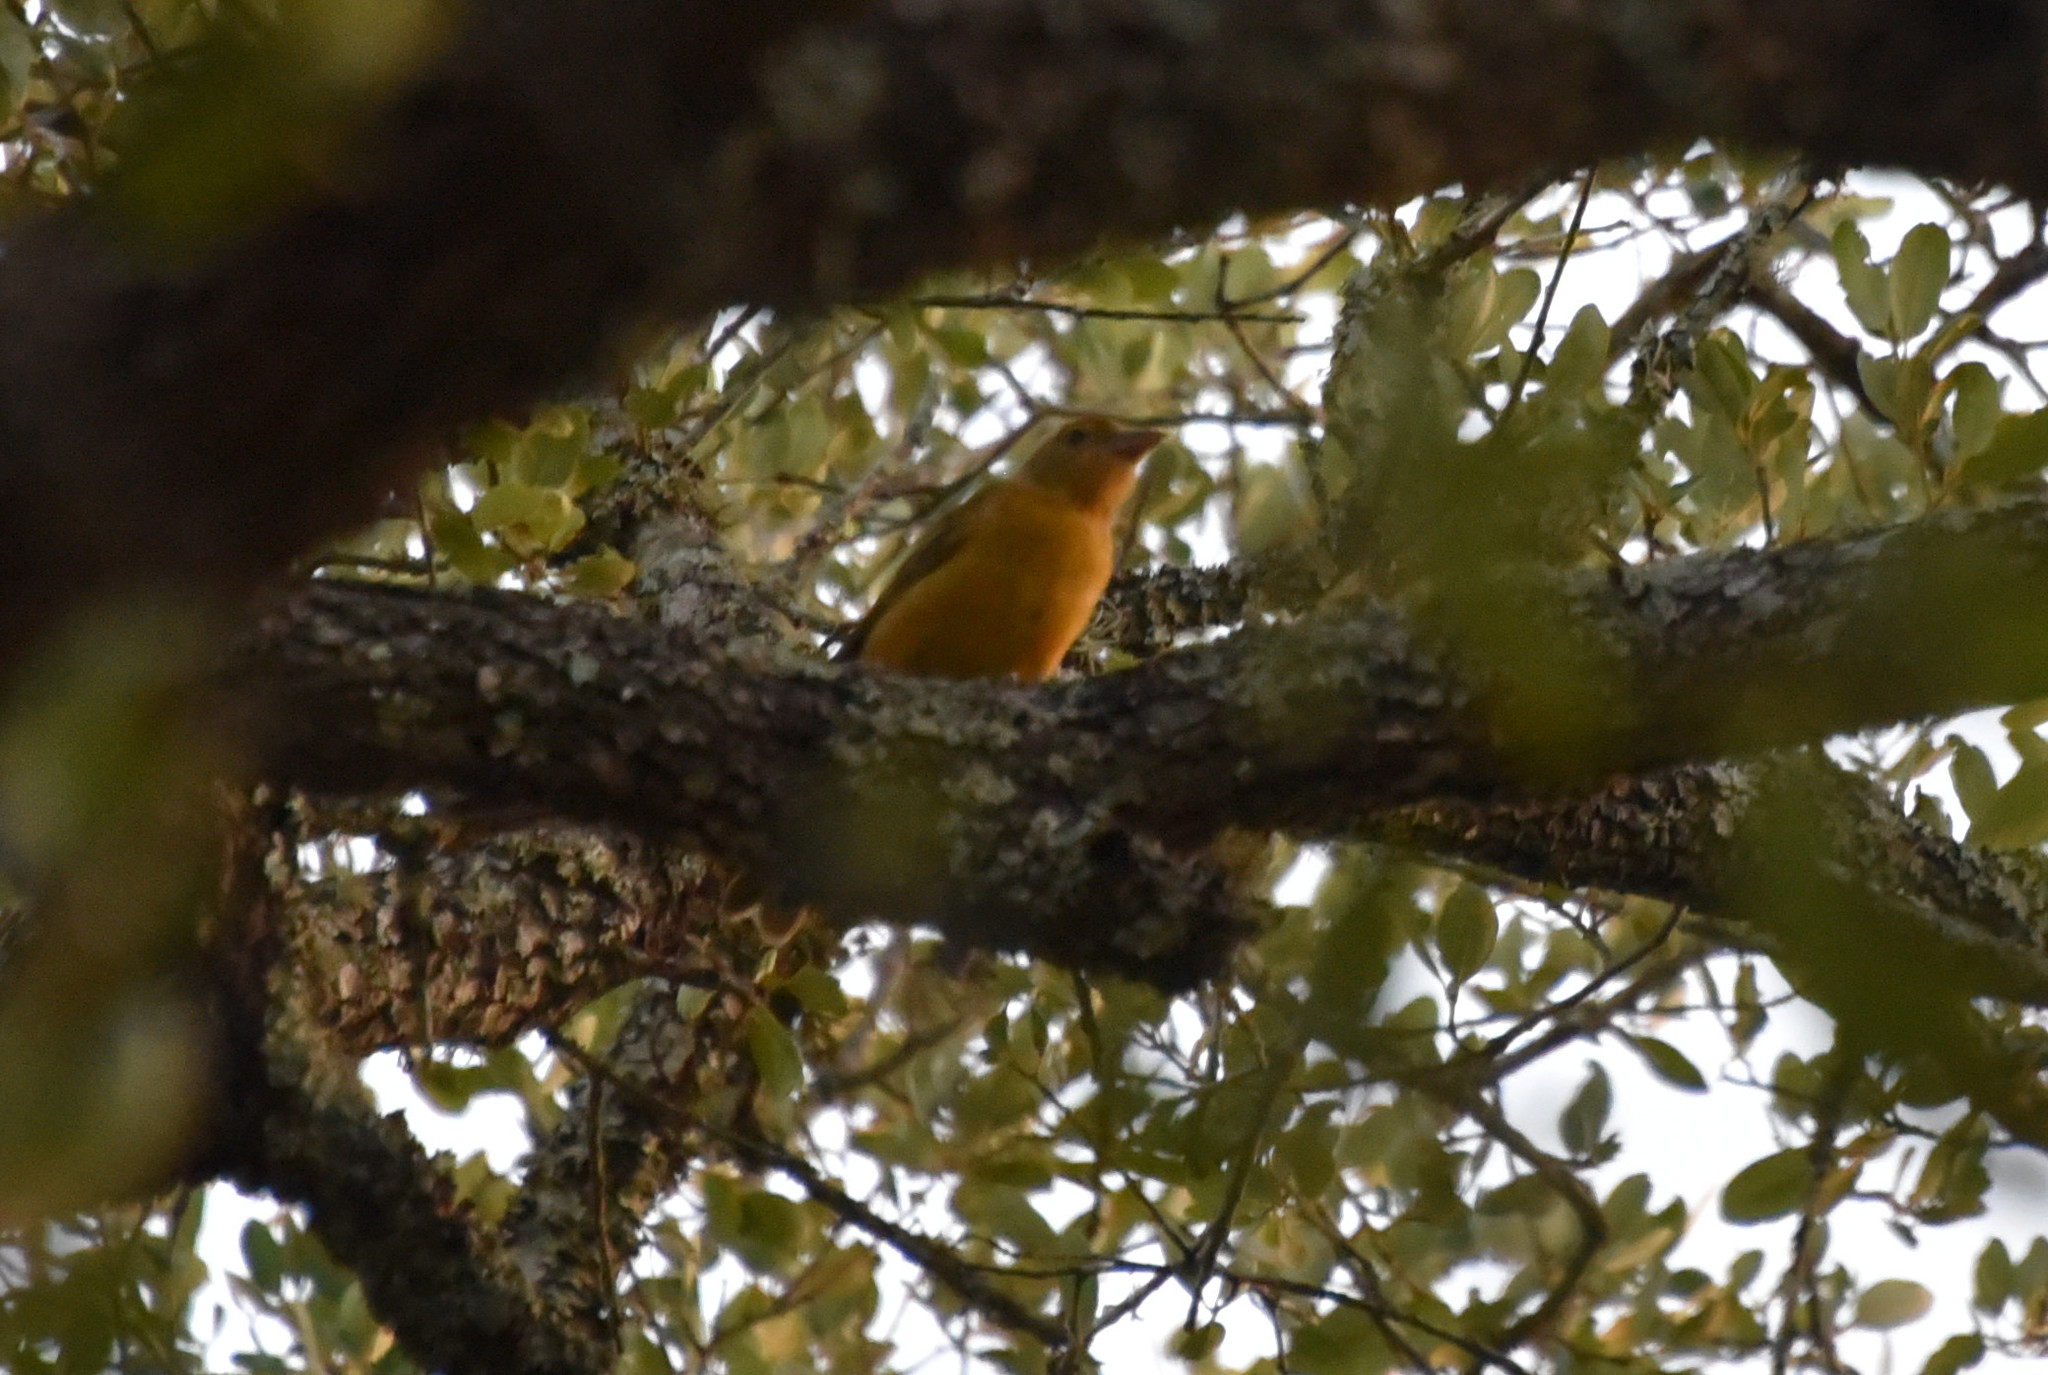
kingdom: Animalia
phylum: Chordata
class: Aves
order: Passeriformes
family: Cardinalidae
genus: Piranga
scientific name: Piranga rubra
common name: Summer tanager
